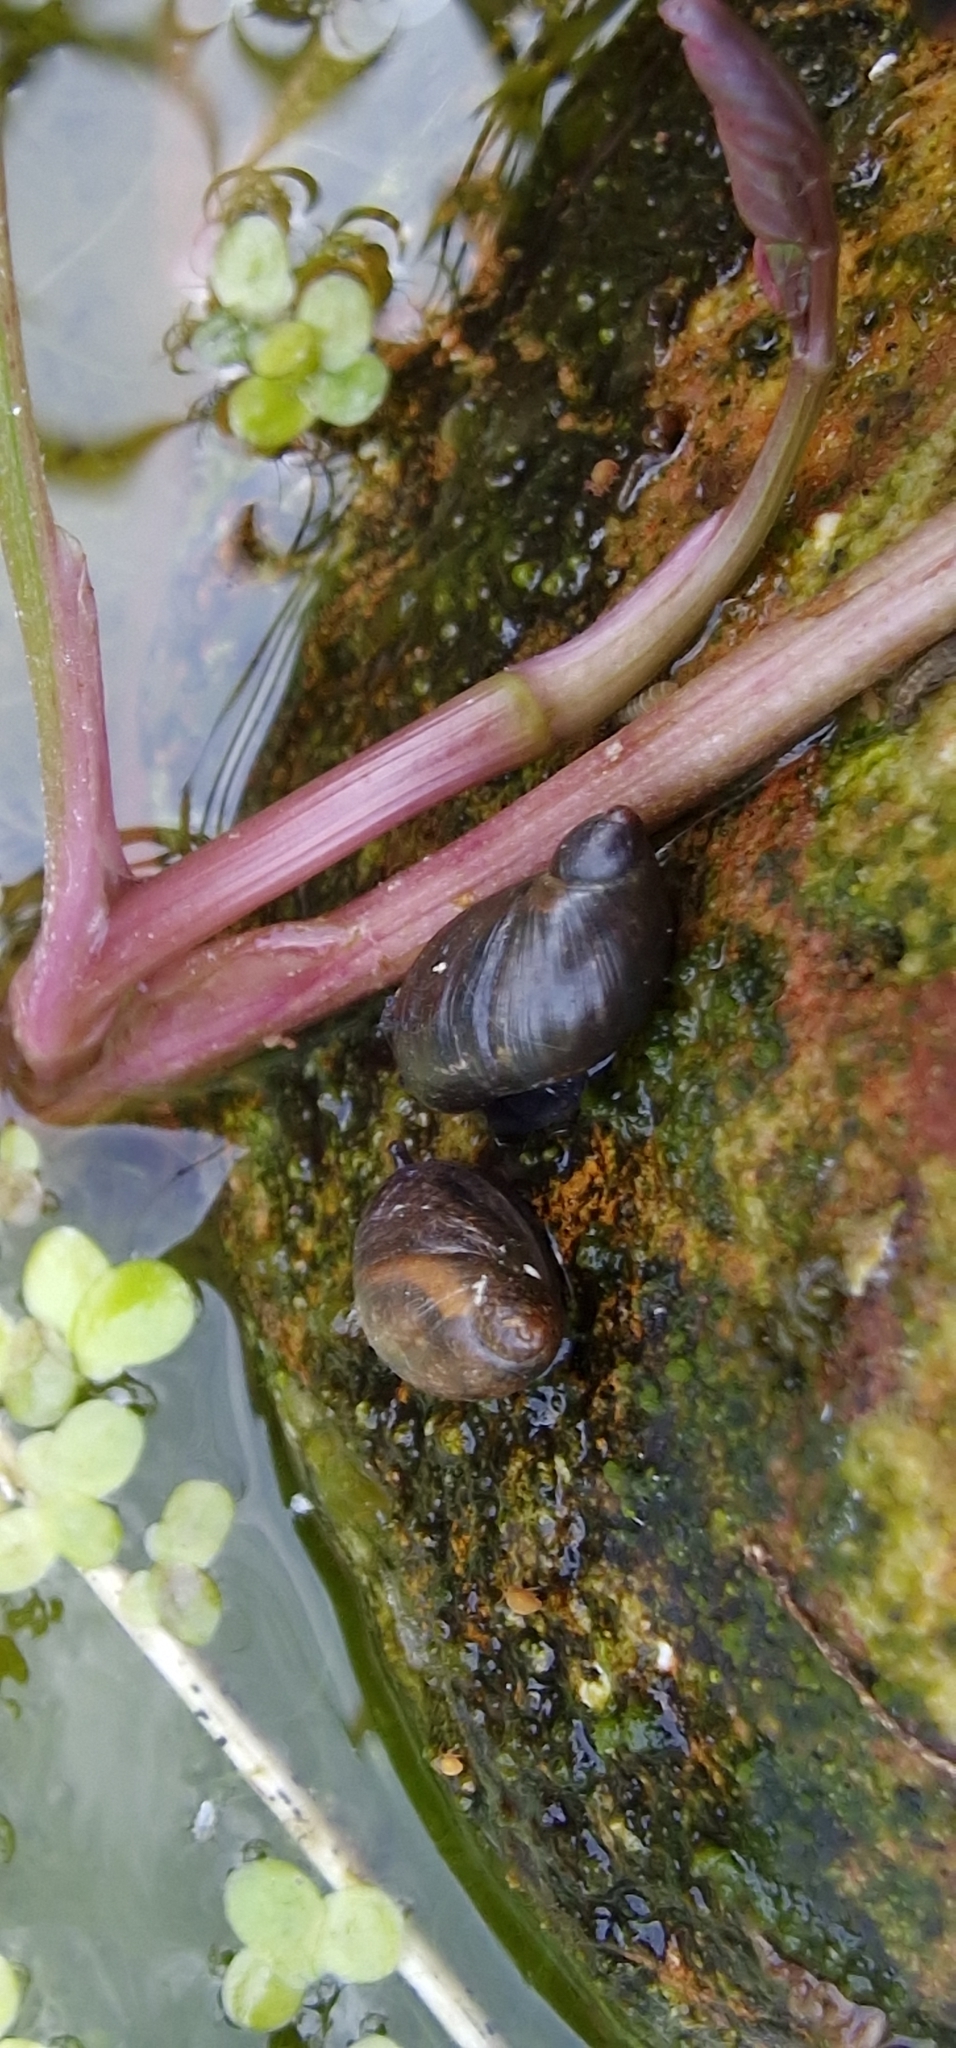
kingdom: Animalia
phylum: Mollusca
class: Gastropoda
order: Stylommatophora
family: Succineidae
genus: Succinea
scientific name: Succinea putris
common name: European ambersnail
